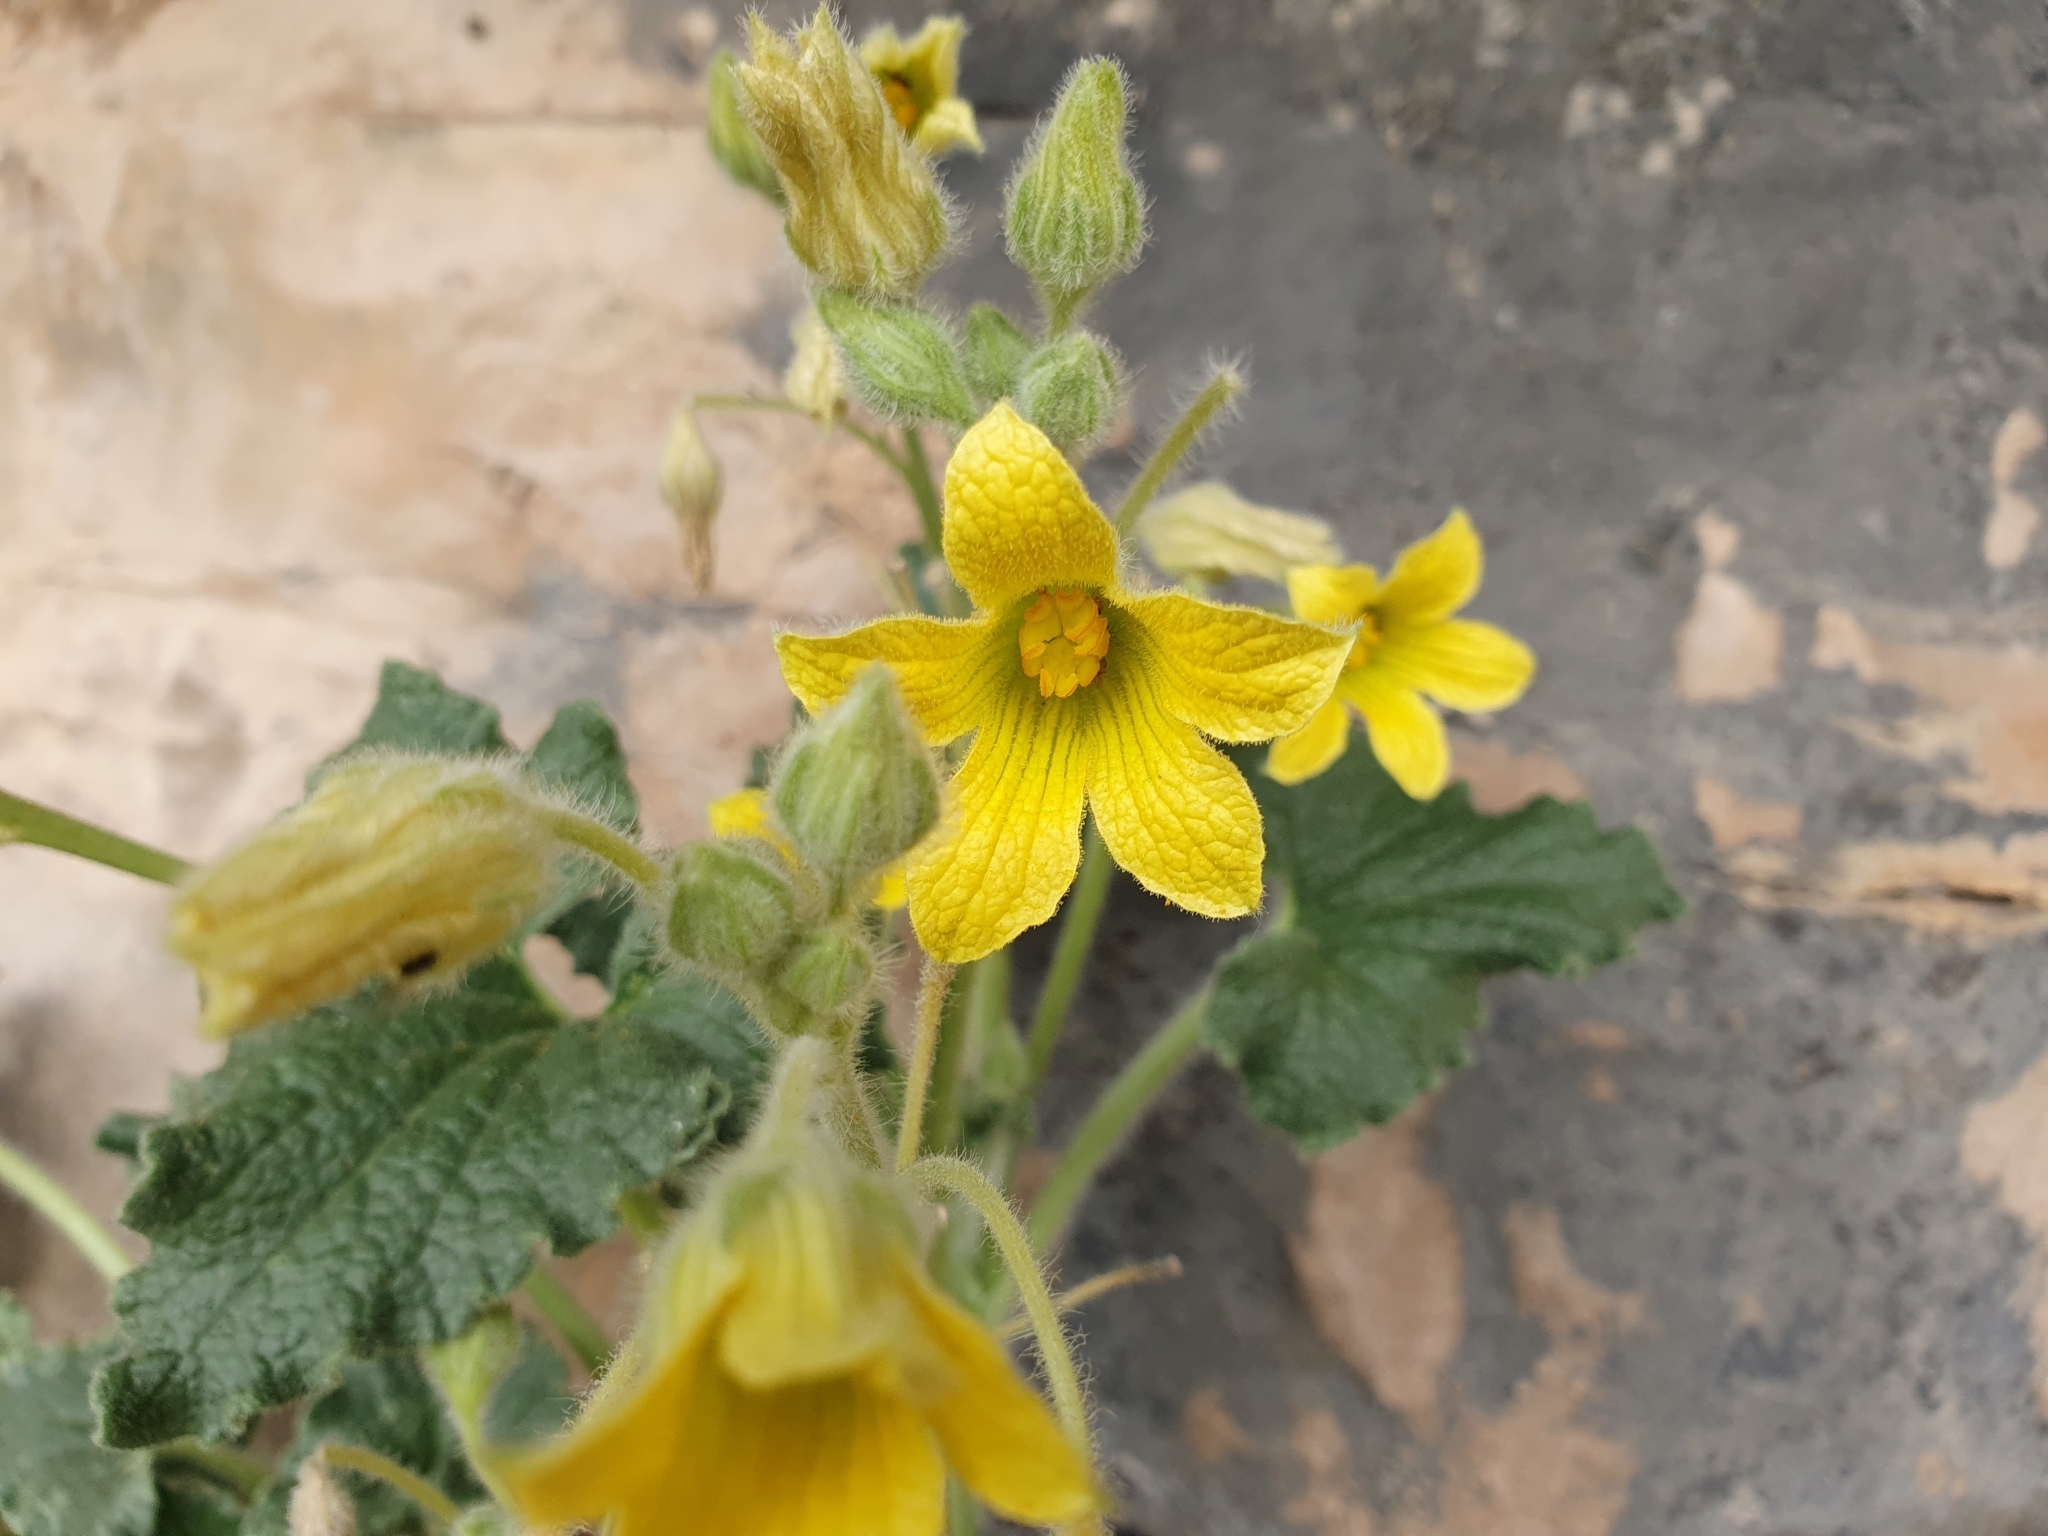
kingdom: Plantae
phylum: Tracheophyta
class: Magnoliopsida
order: Cucurbitales
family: Cucurbitaceae
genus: Ecballium
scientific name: Ecballium elaterium
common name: Squirting cucumber
